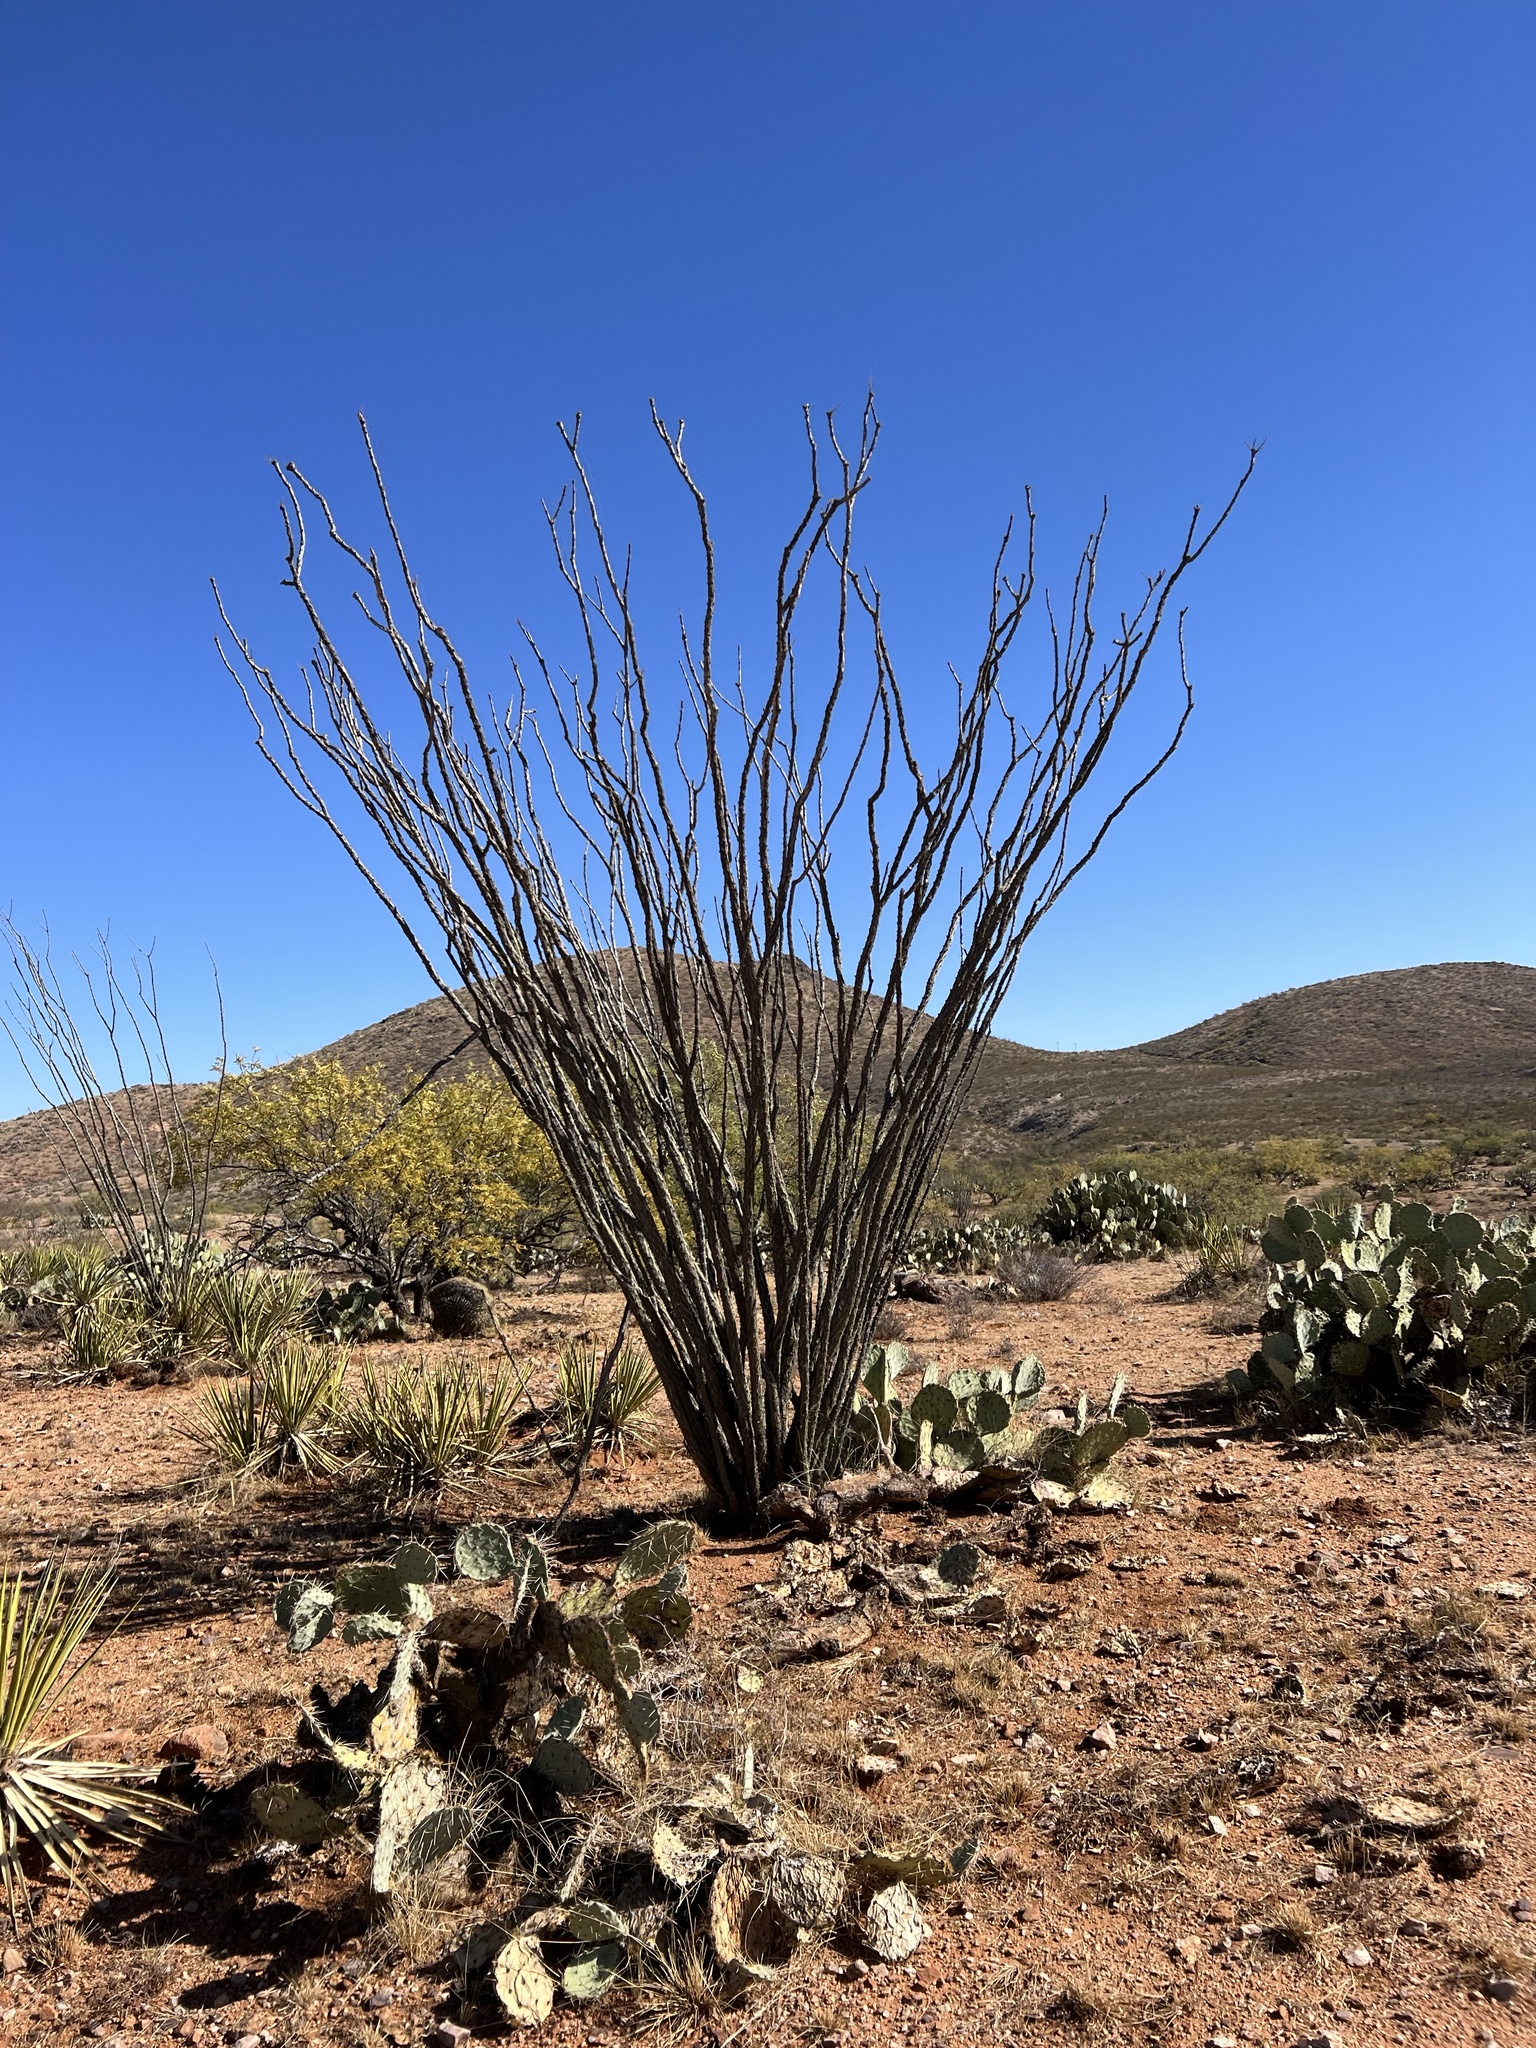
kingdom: Plantae
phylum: Tracheophyta
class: Magnoliopsida
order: Ericales
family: Fouquieriaceae
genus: Fouquieria
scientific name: Fouquieria splendens
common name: Vine-cactus
